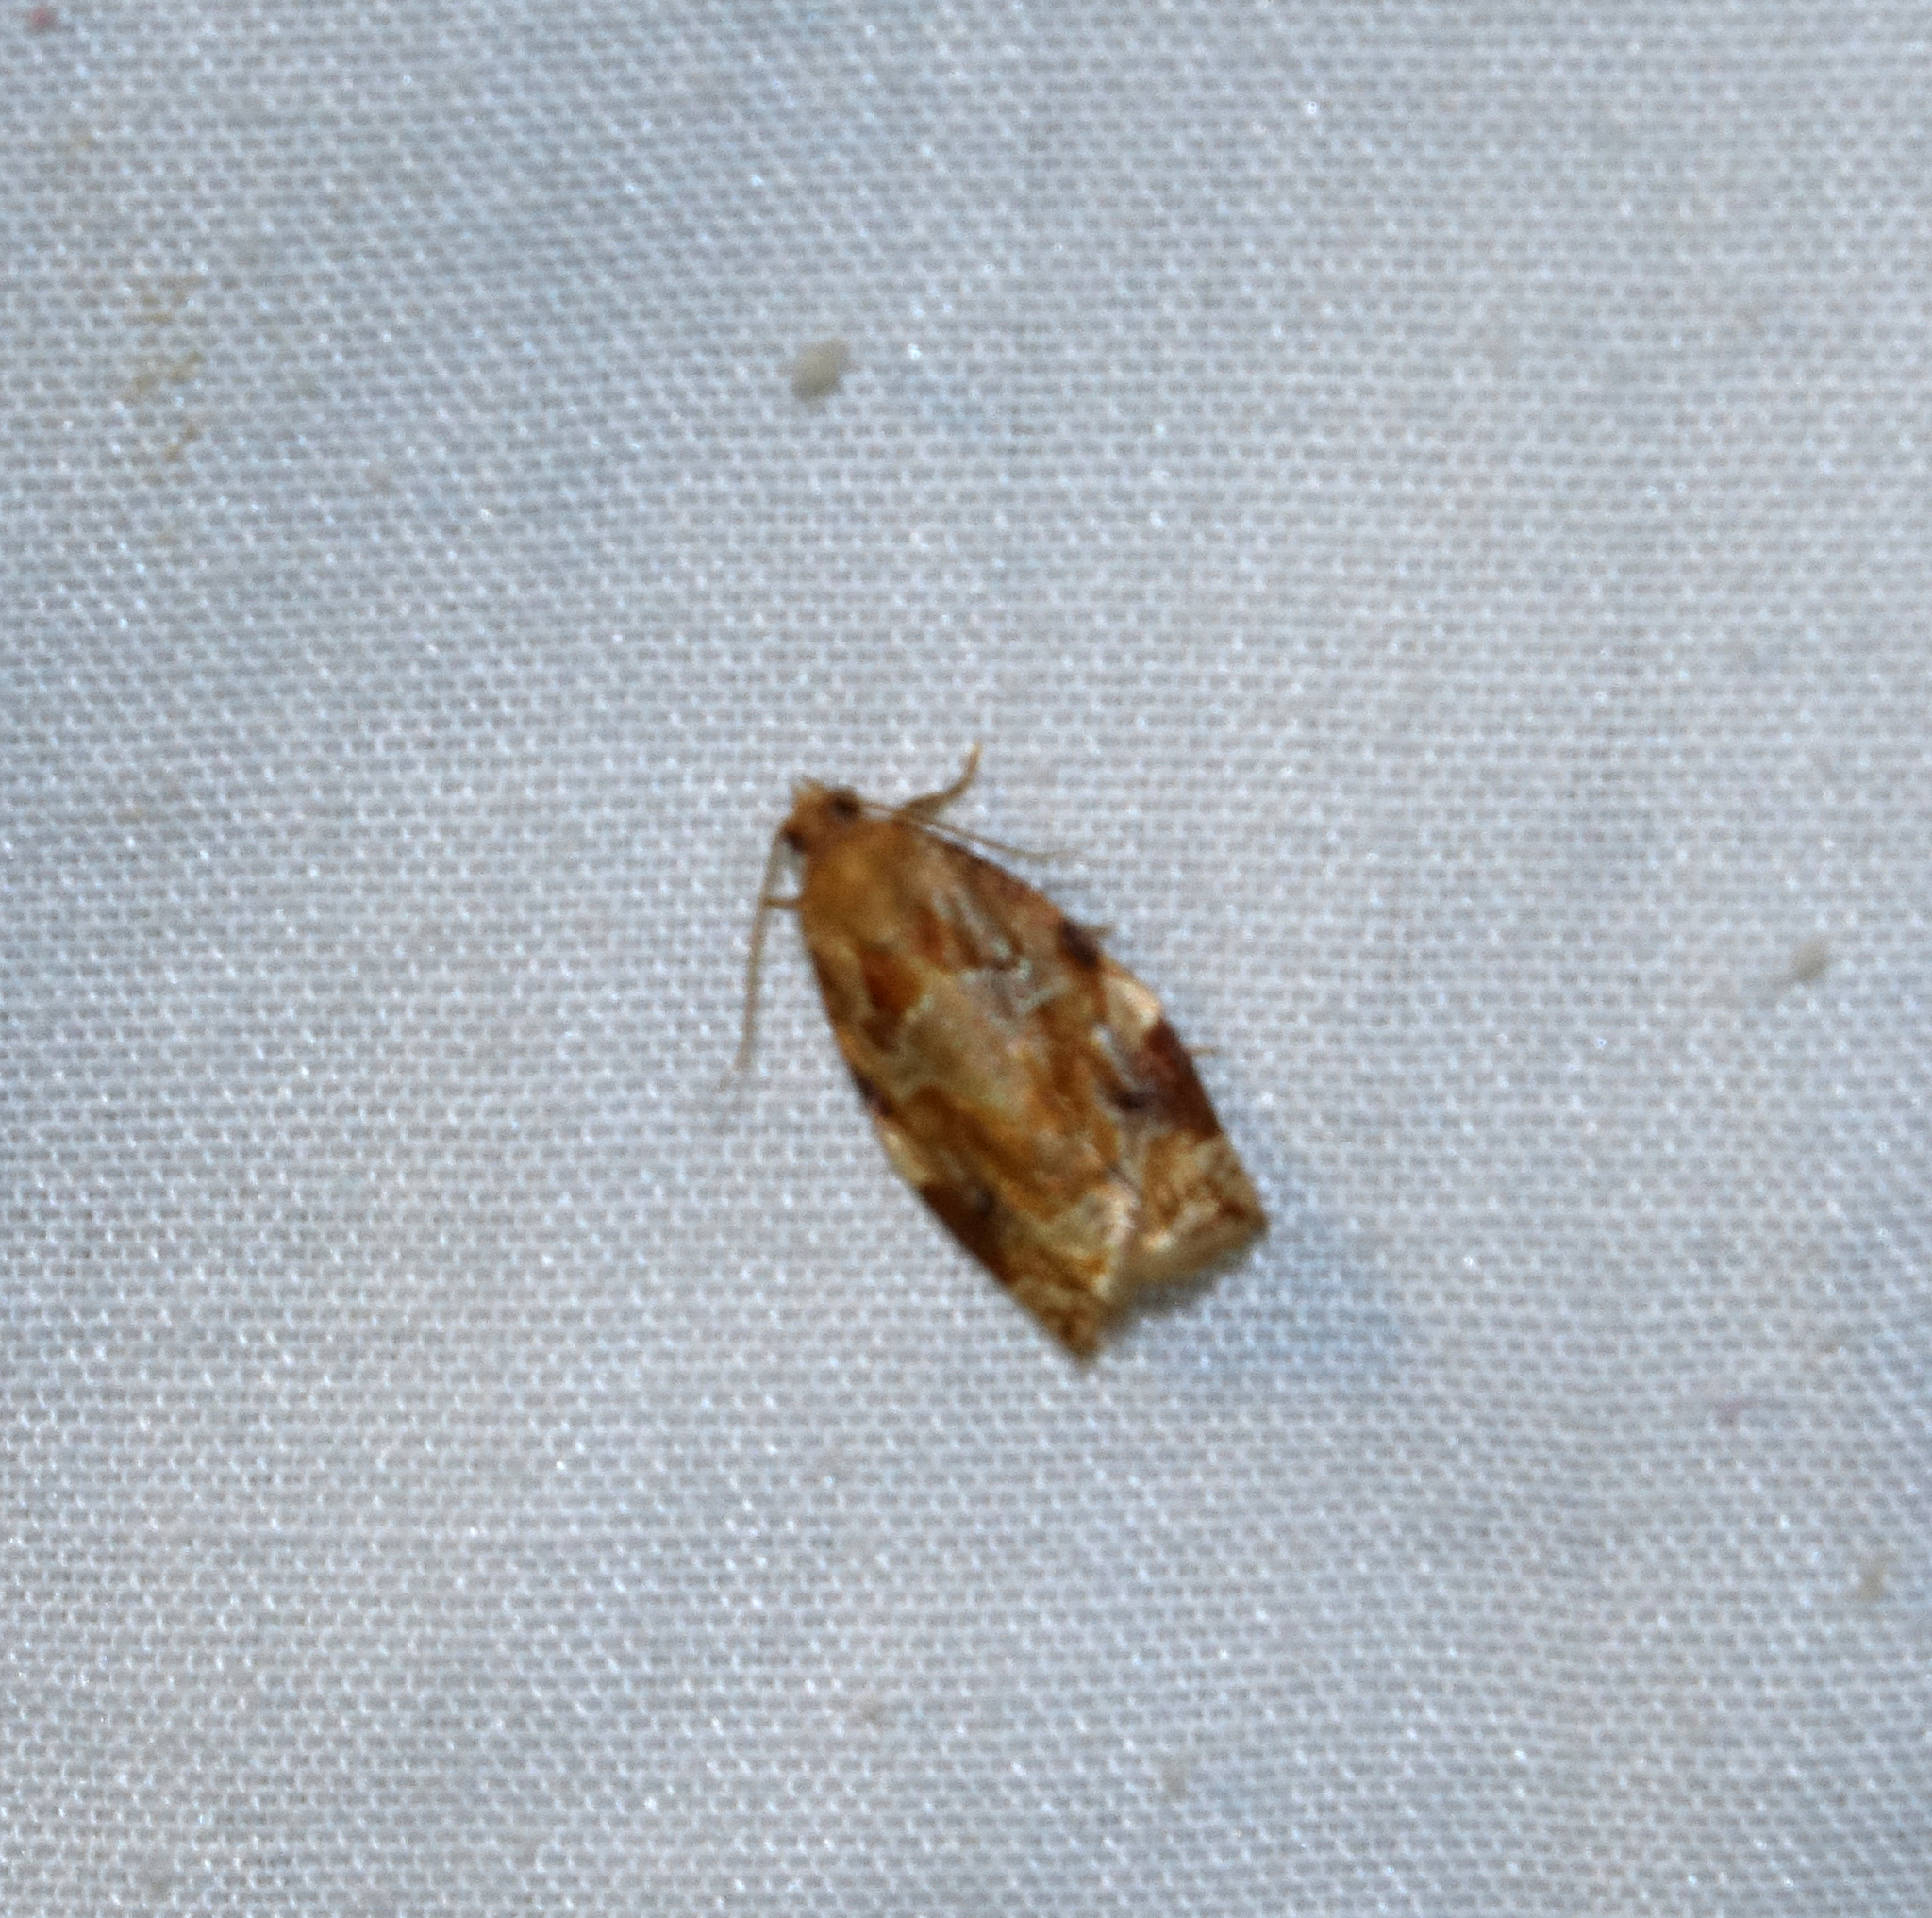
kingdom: Animalia
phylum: Arthropoda
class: Insecta
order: Lepidoptera
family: Tortricidae
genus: Archips
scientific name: Archips xylosteana
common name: Variegated golden tortrix
